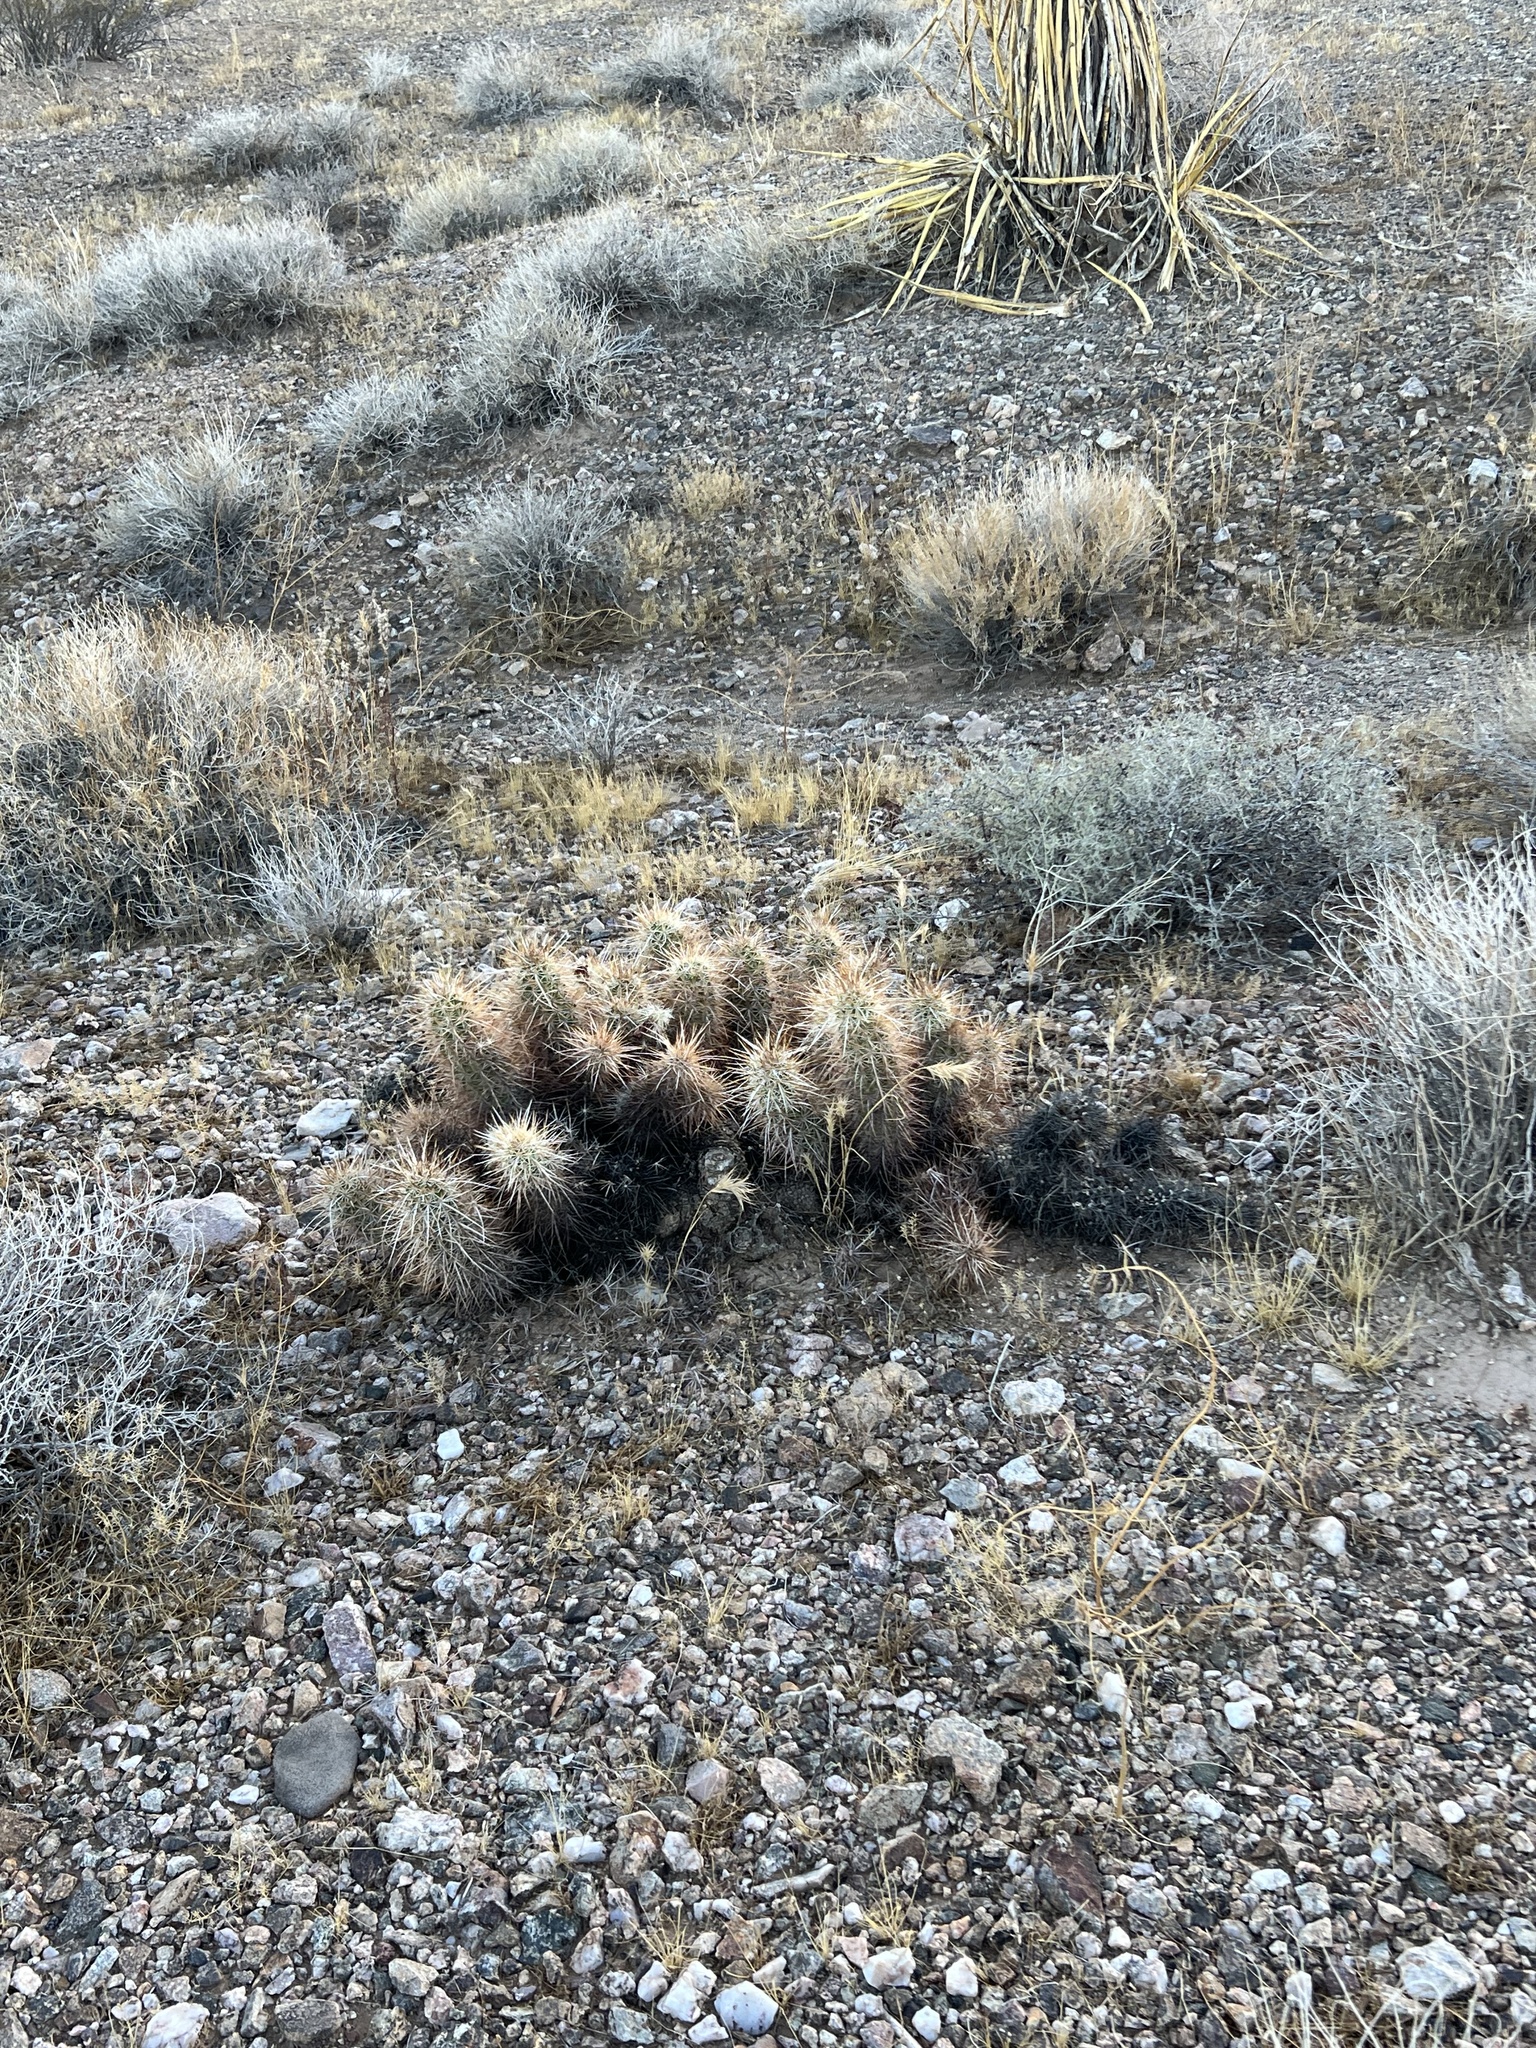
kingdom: Plantae
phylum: Tracheophyta
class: Magnoliopsida
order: Caryophyllales
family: Cactaceae
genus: Echinocereus
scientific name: Echinocereus engelmannii
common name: Engelmann's hedgehog cactus
